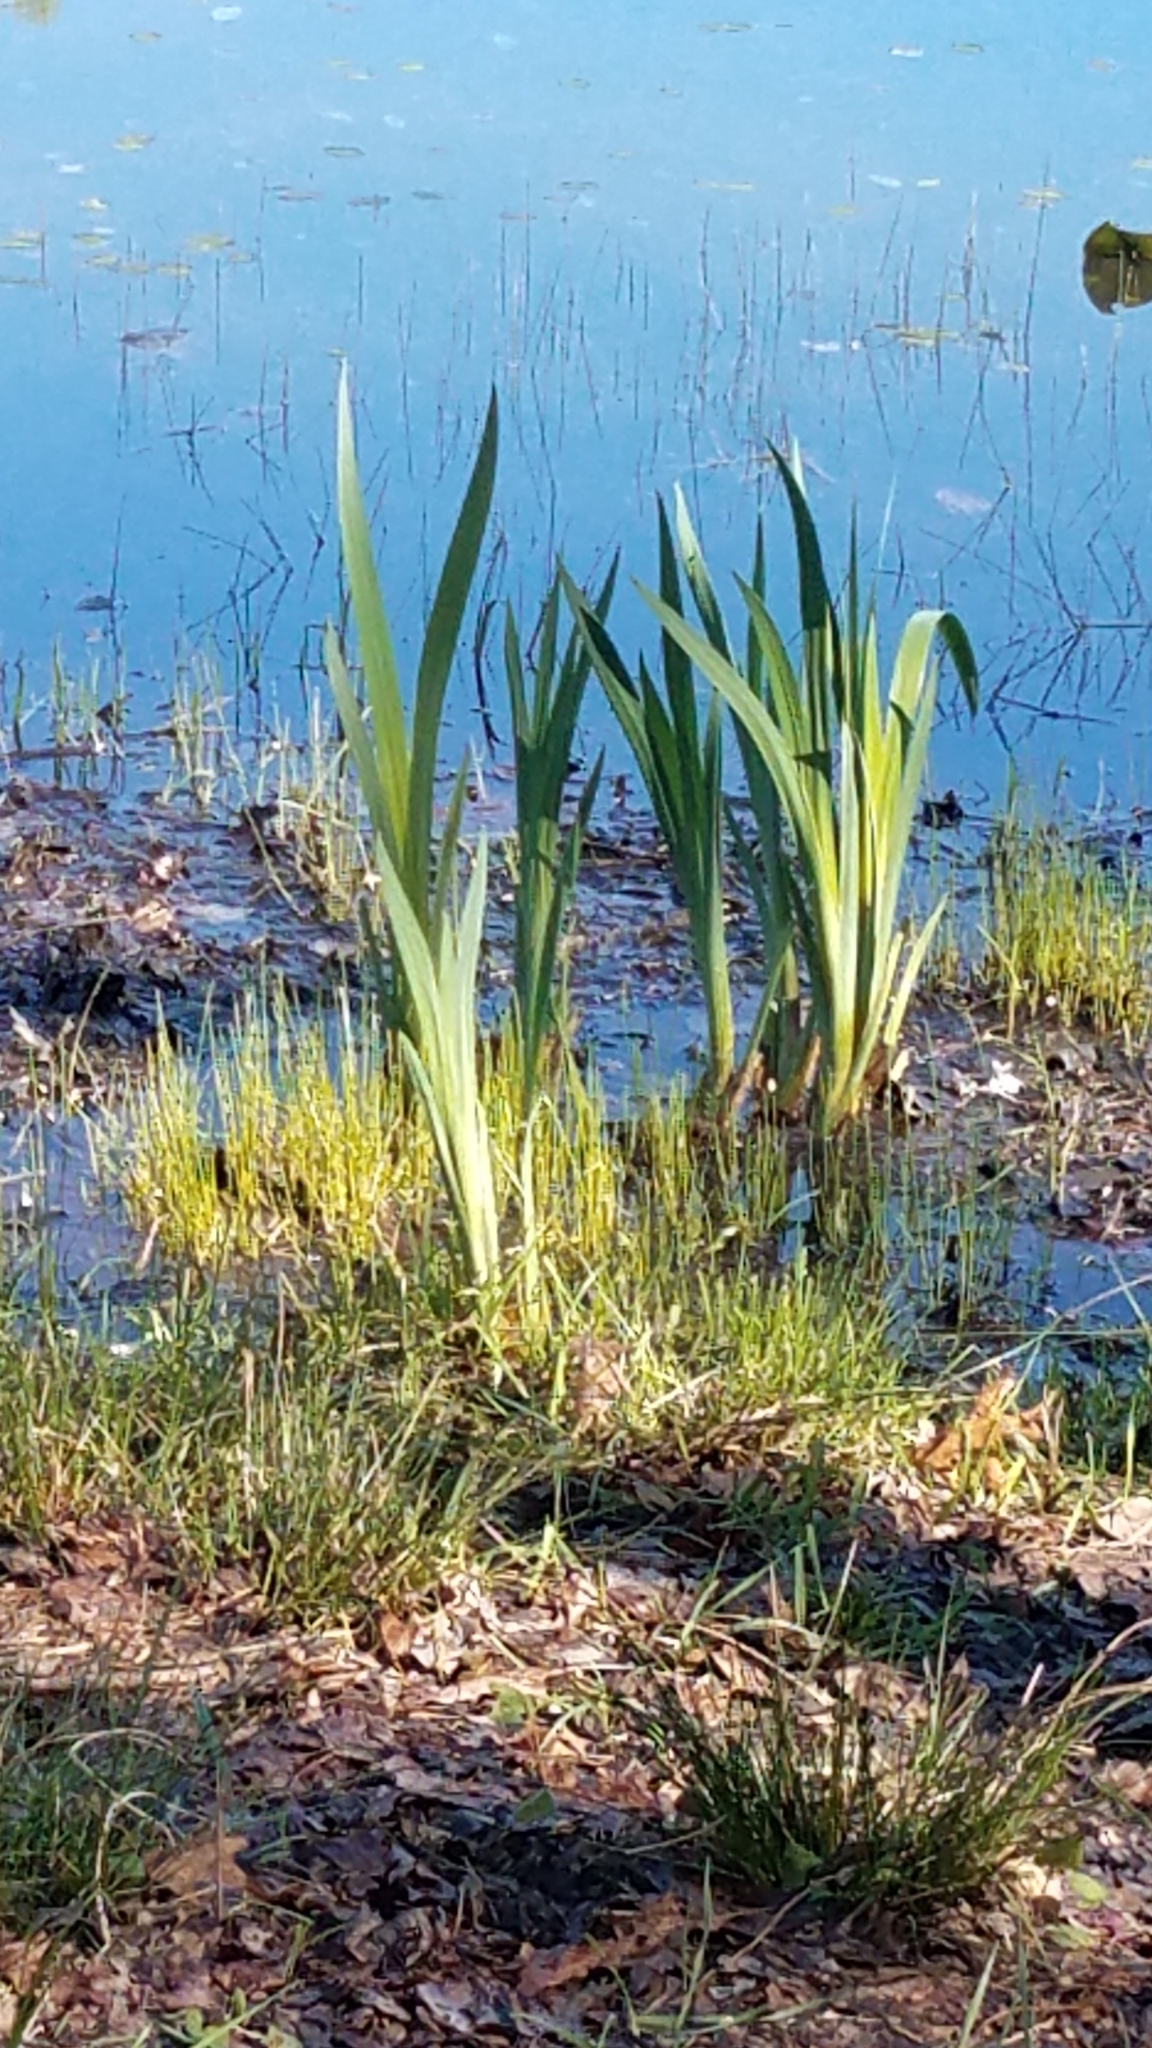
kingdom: Plantae
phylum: Tracheophyta
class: Liliopsida
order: Asparagales
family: Iridaceae
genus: Iris
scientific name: Iris pseudacorus
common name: Yellow flag
